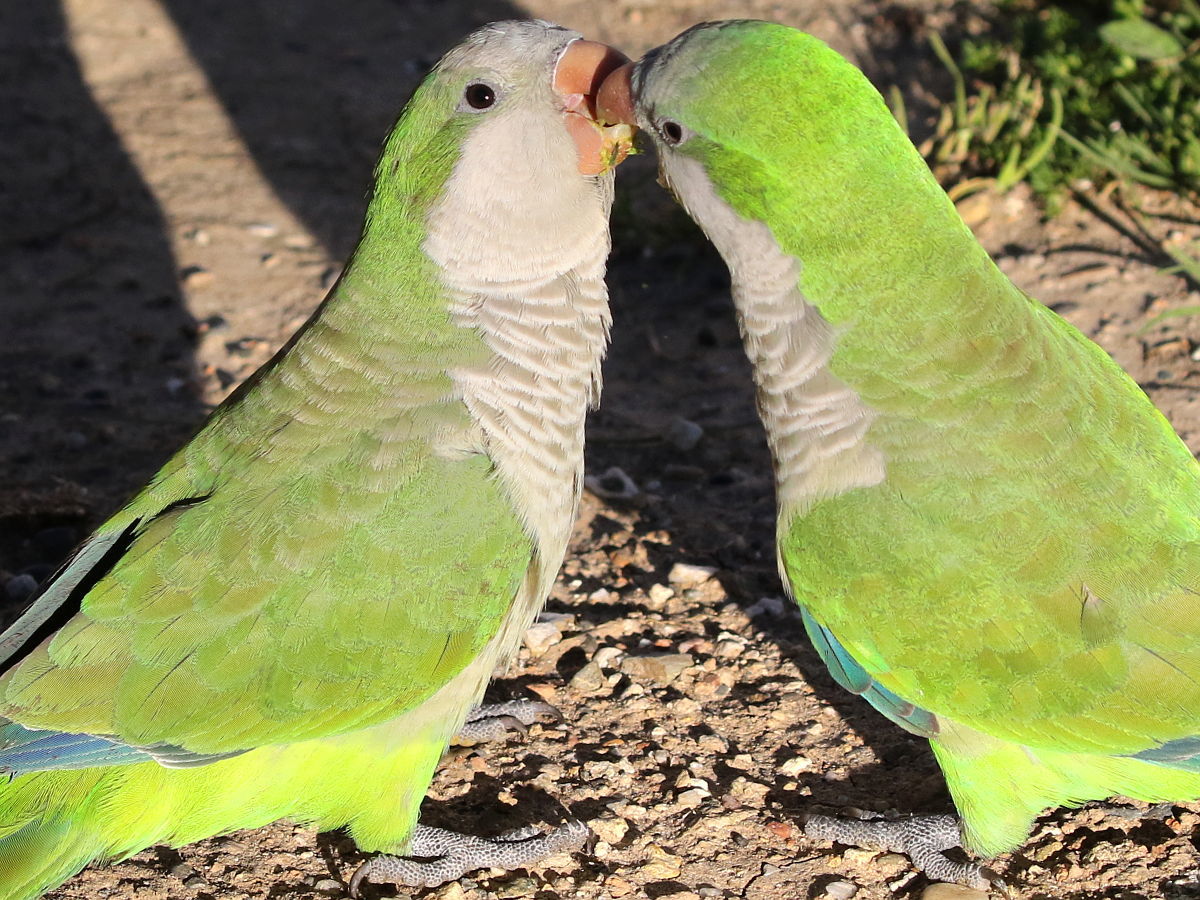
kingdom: Animalia
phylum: Chordata
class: Aves
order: Psittaciformes
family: Psittacidae
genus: Myiopsitta
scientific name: Myiopsitta monachus
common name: Monk parakeet
